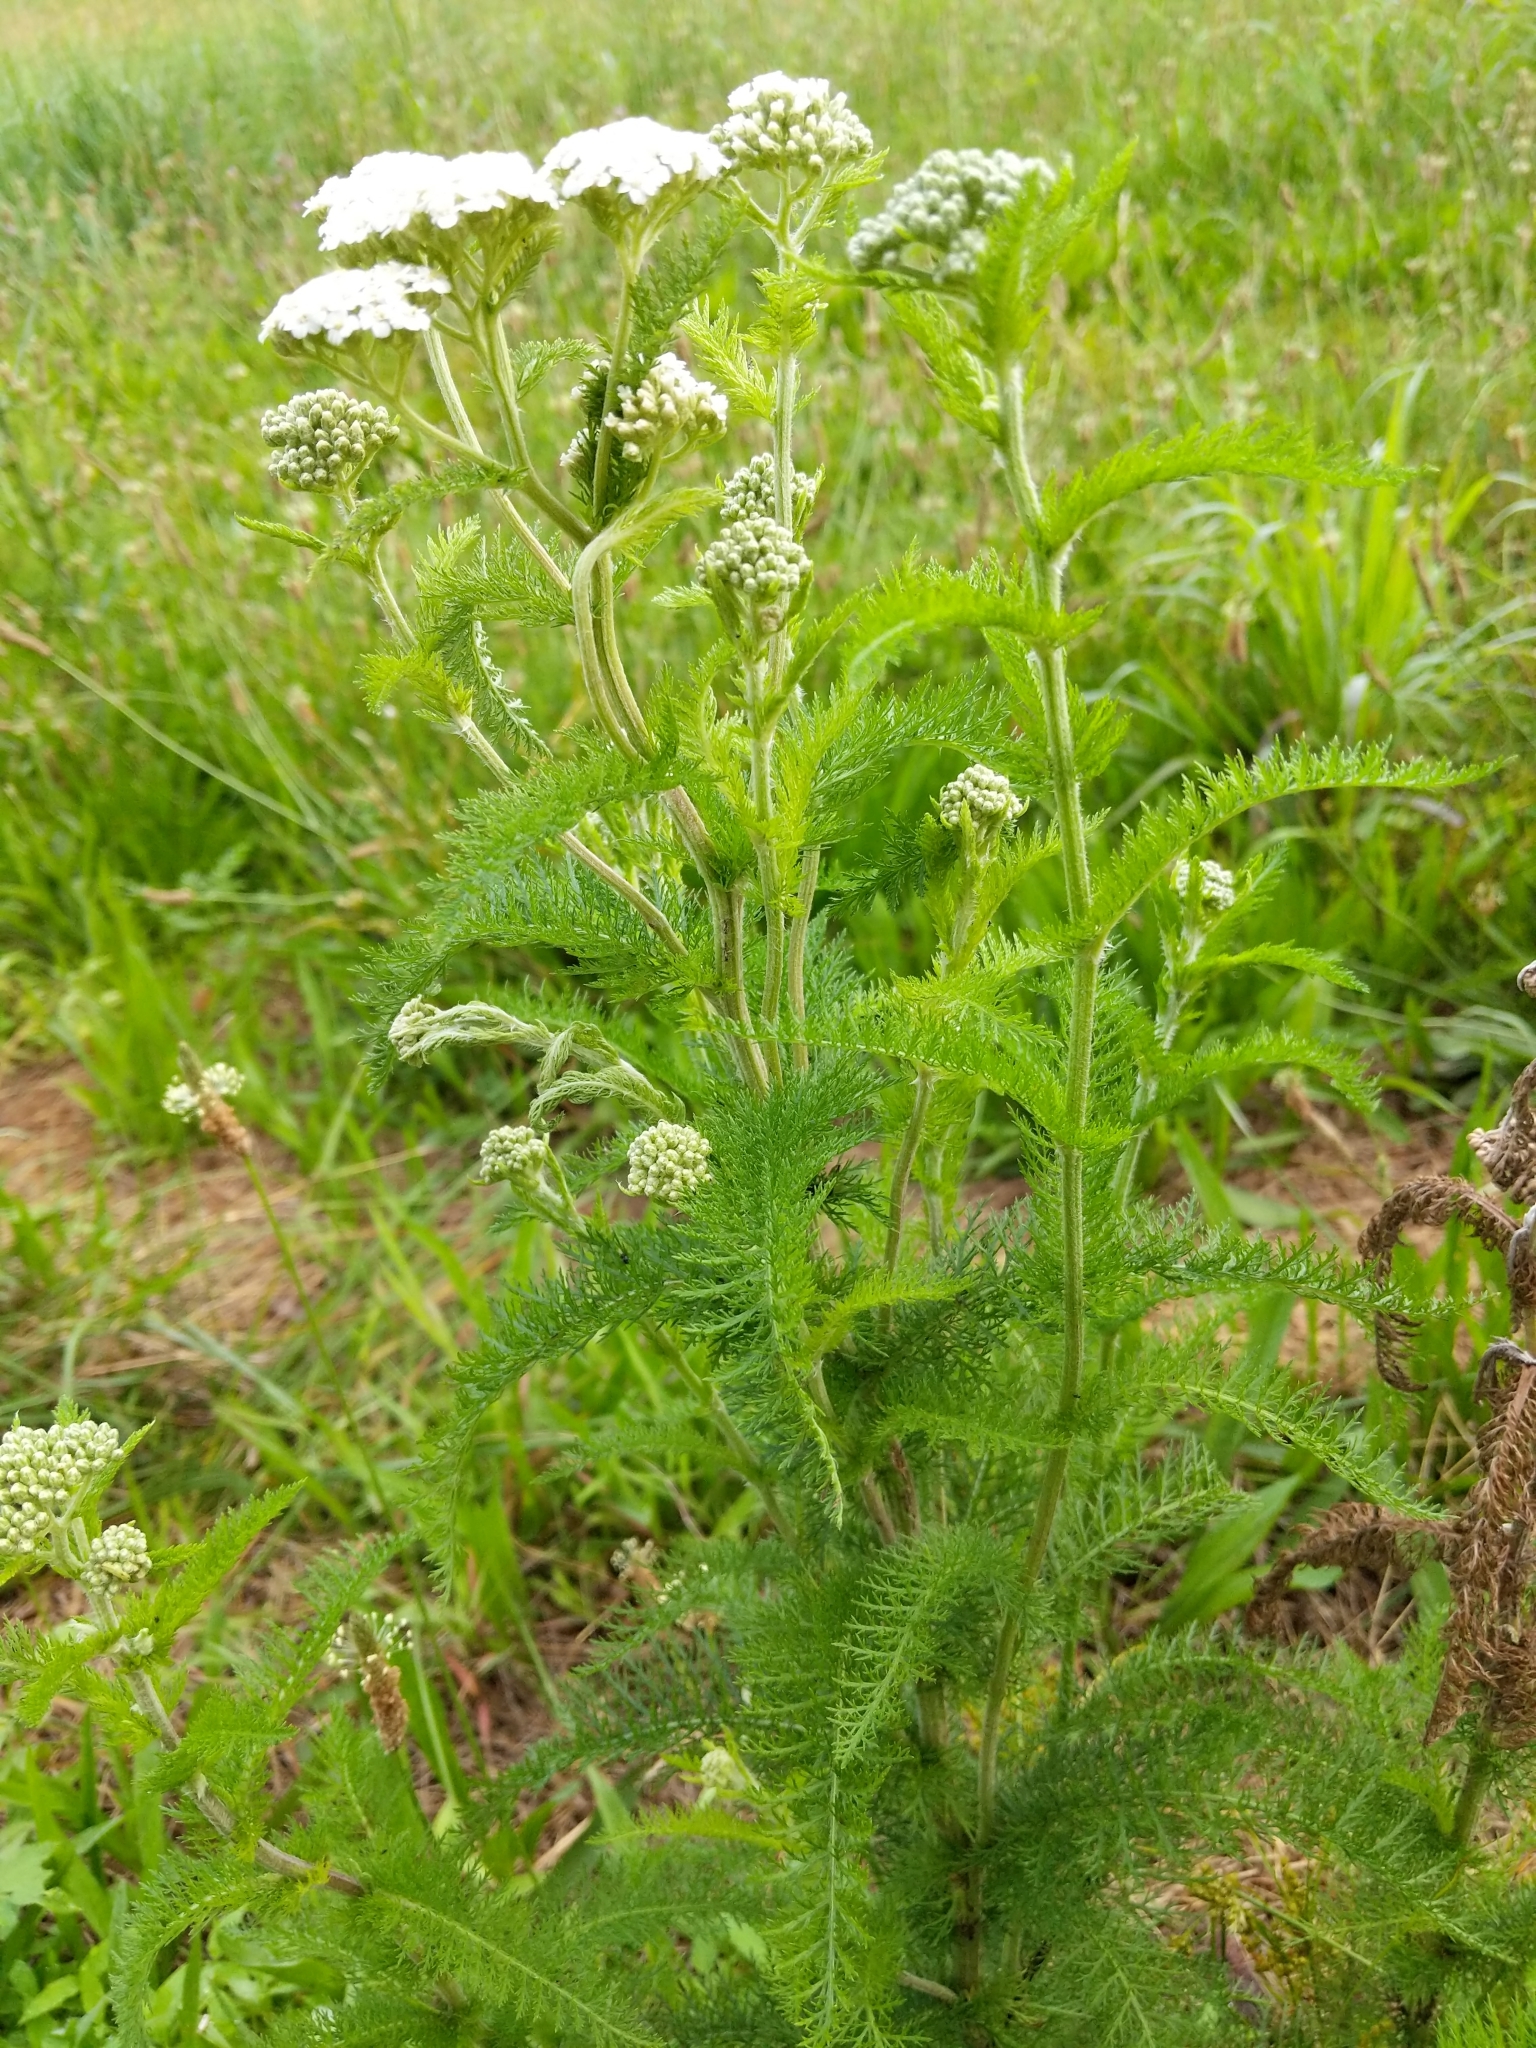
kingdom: Plantae
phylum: Tracheophyta
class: Magnoliopsida
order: Asterales
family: Asteraceae
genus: Achillea
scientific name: Achillea millefolium
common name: Yarrow
